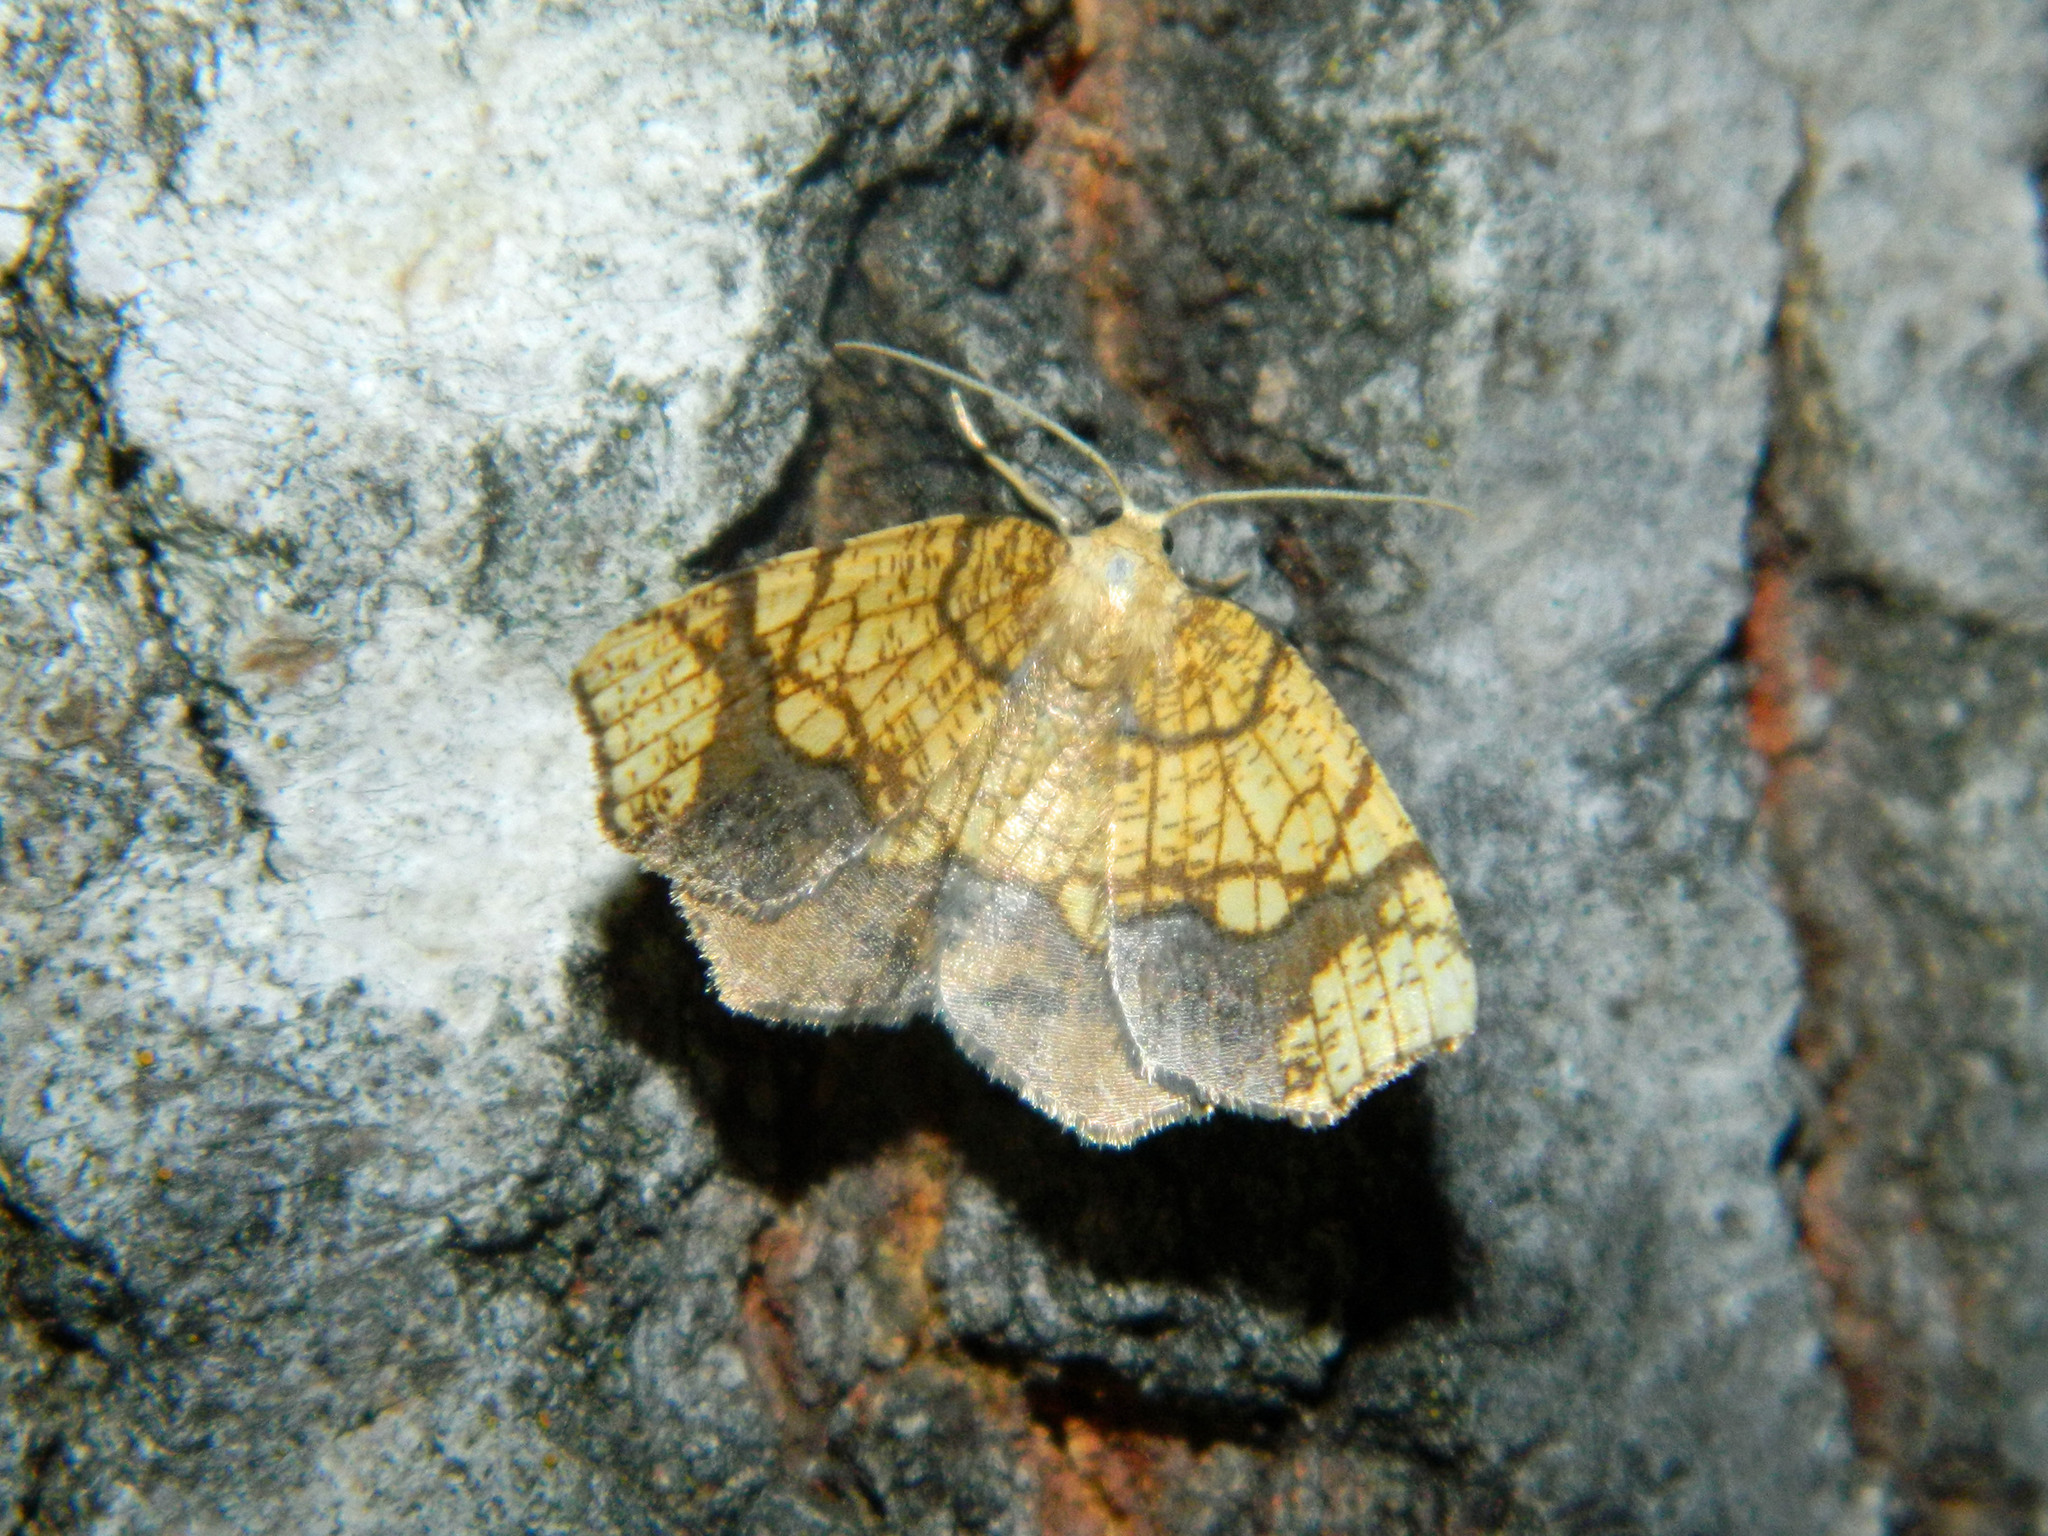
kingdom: Animalia
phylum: Arthropoda
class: Insecta
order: Lepidoptera
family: Geometridae
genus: Nematocampa
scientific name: Nematocampa resistaria
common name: Horned spanworm moth
